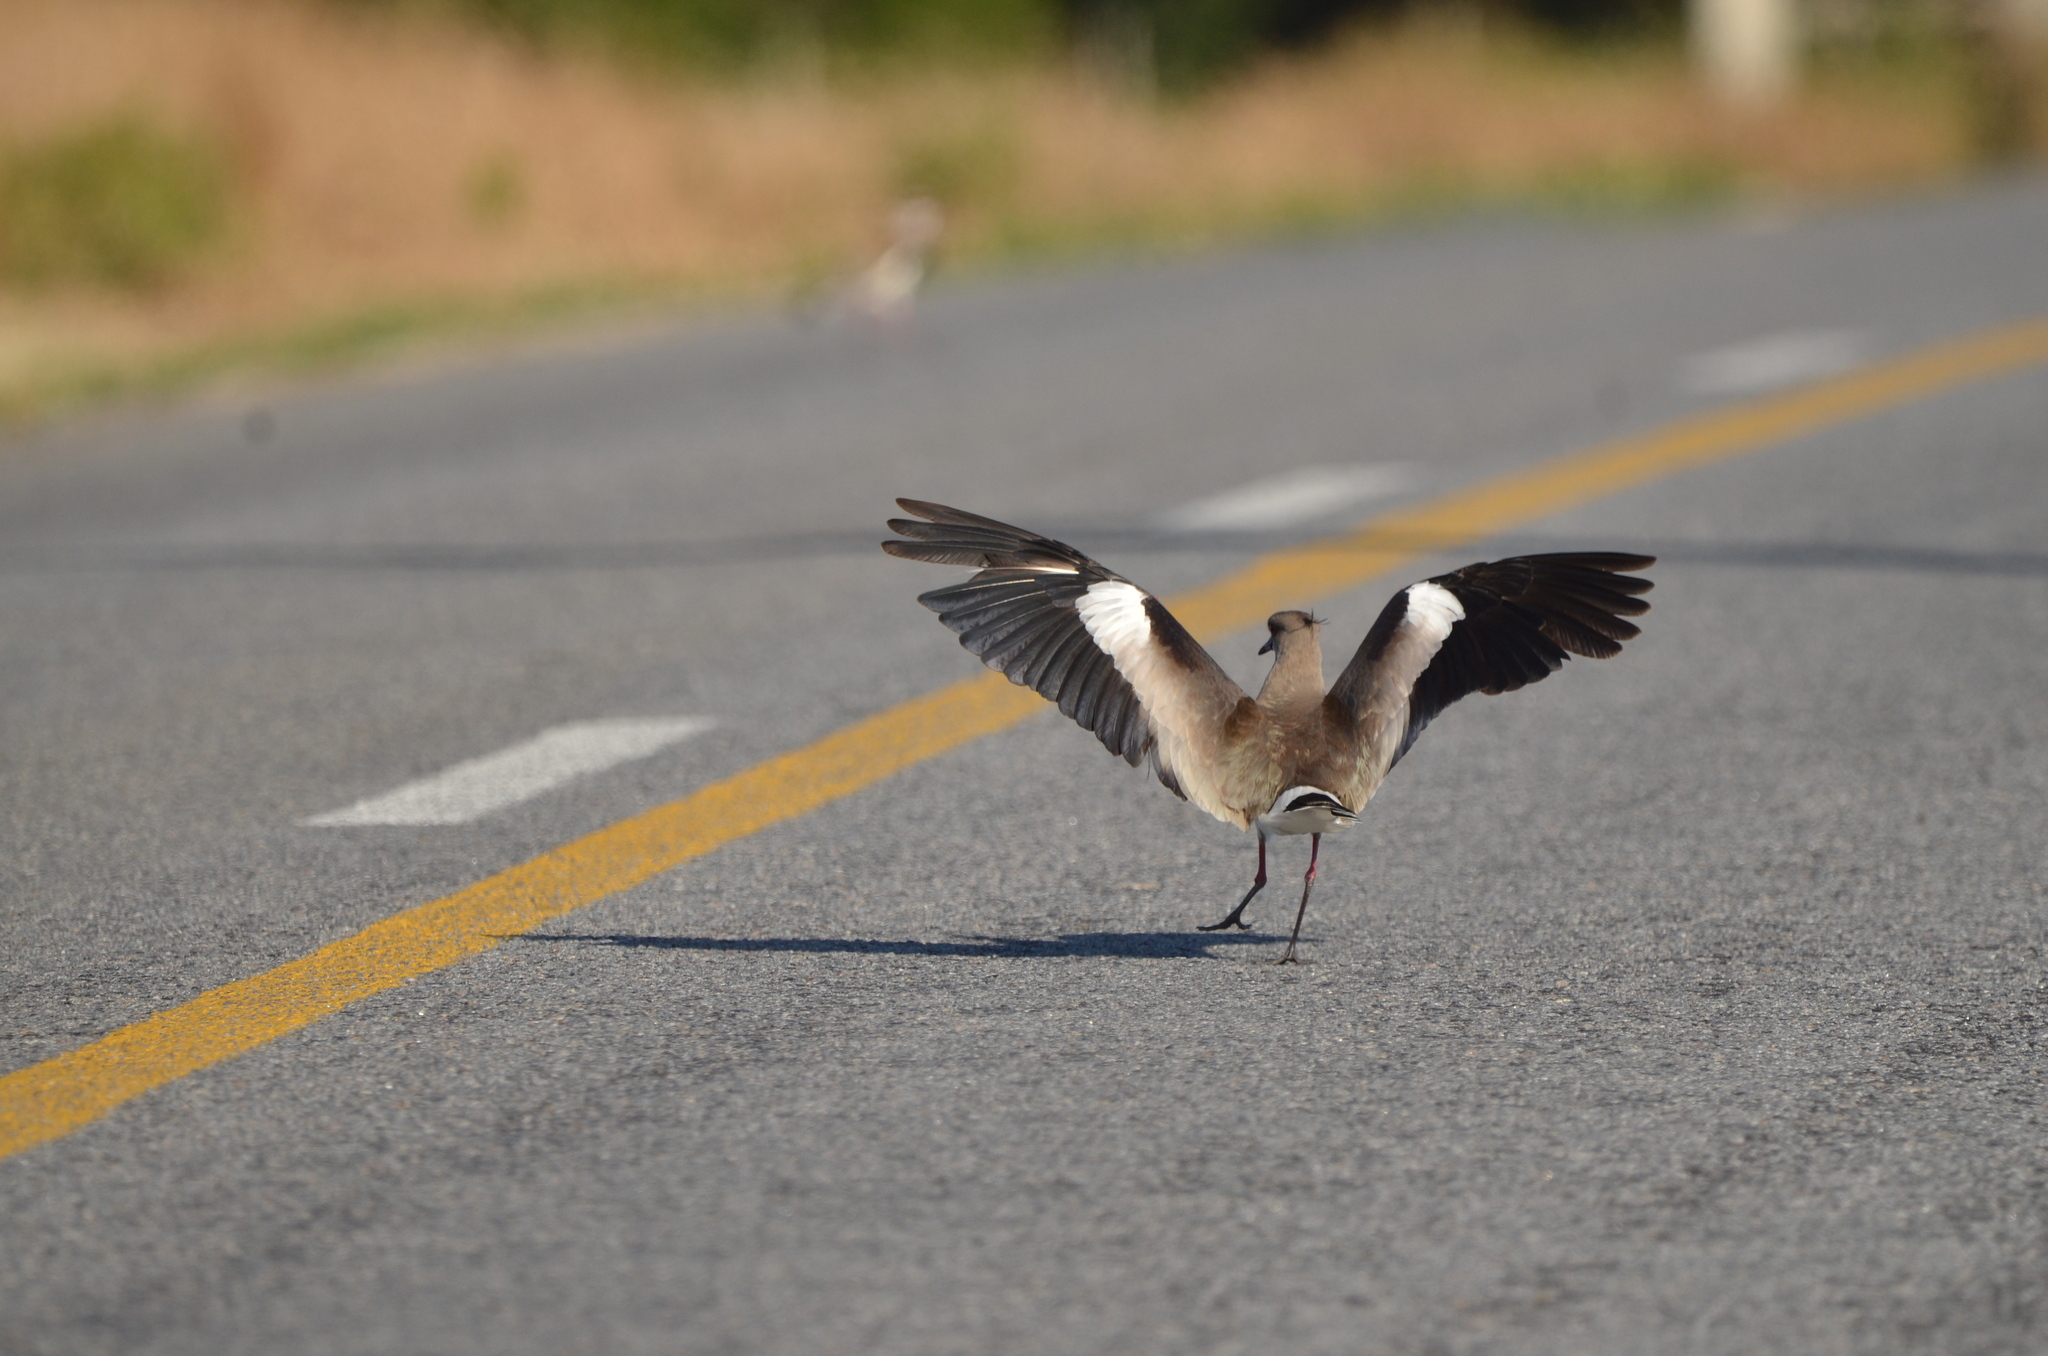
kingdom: Animalia
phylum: Chordata
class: Aves
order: Charadriiformes
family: Charadriidae
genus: Vanellus
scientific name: Vanellus chilensis
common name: Southern lapwing
